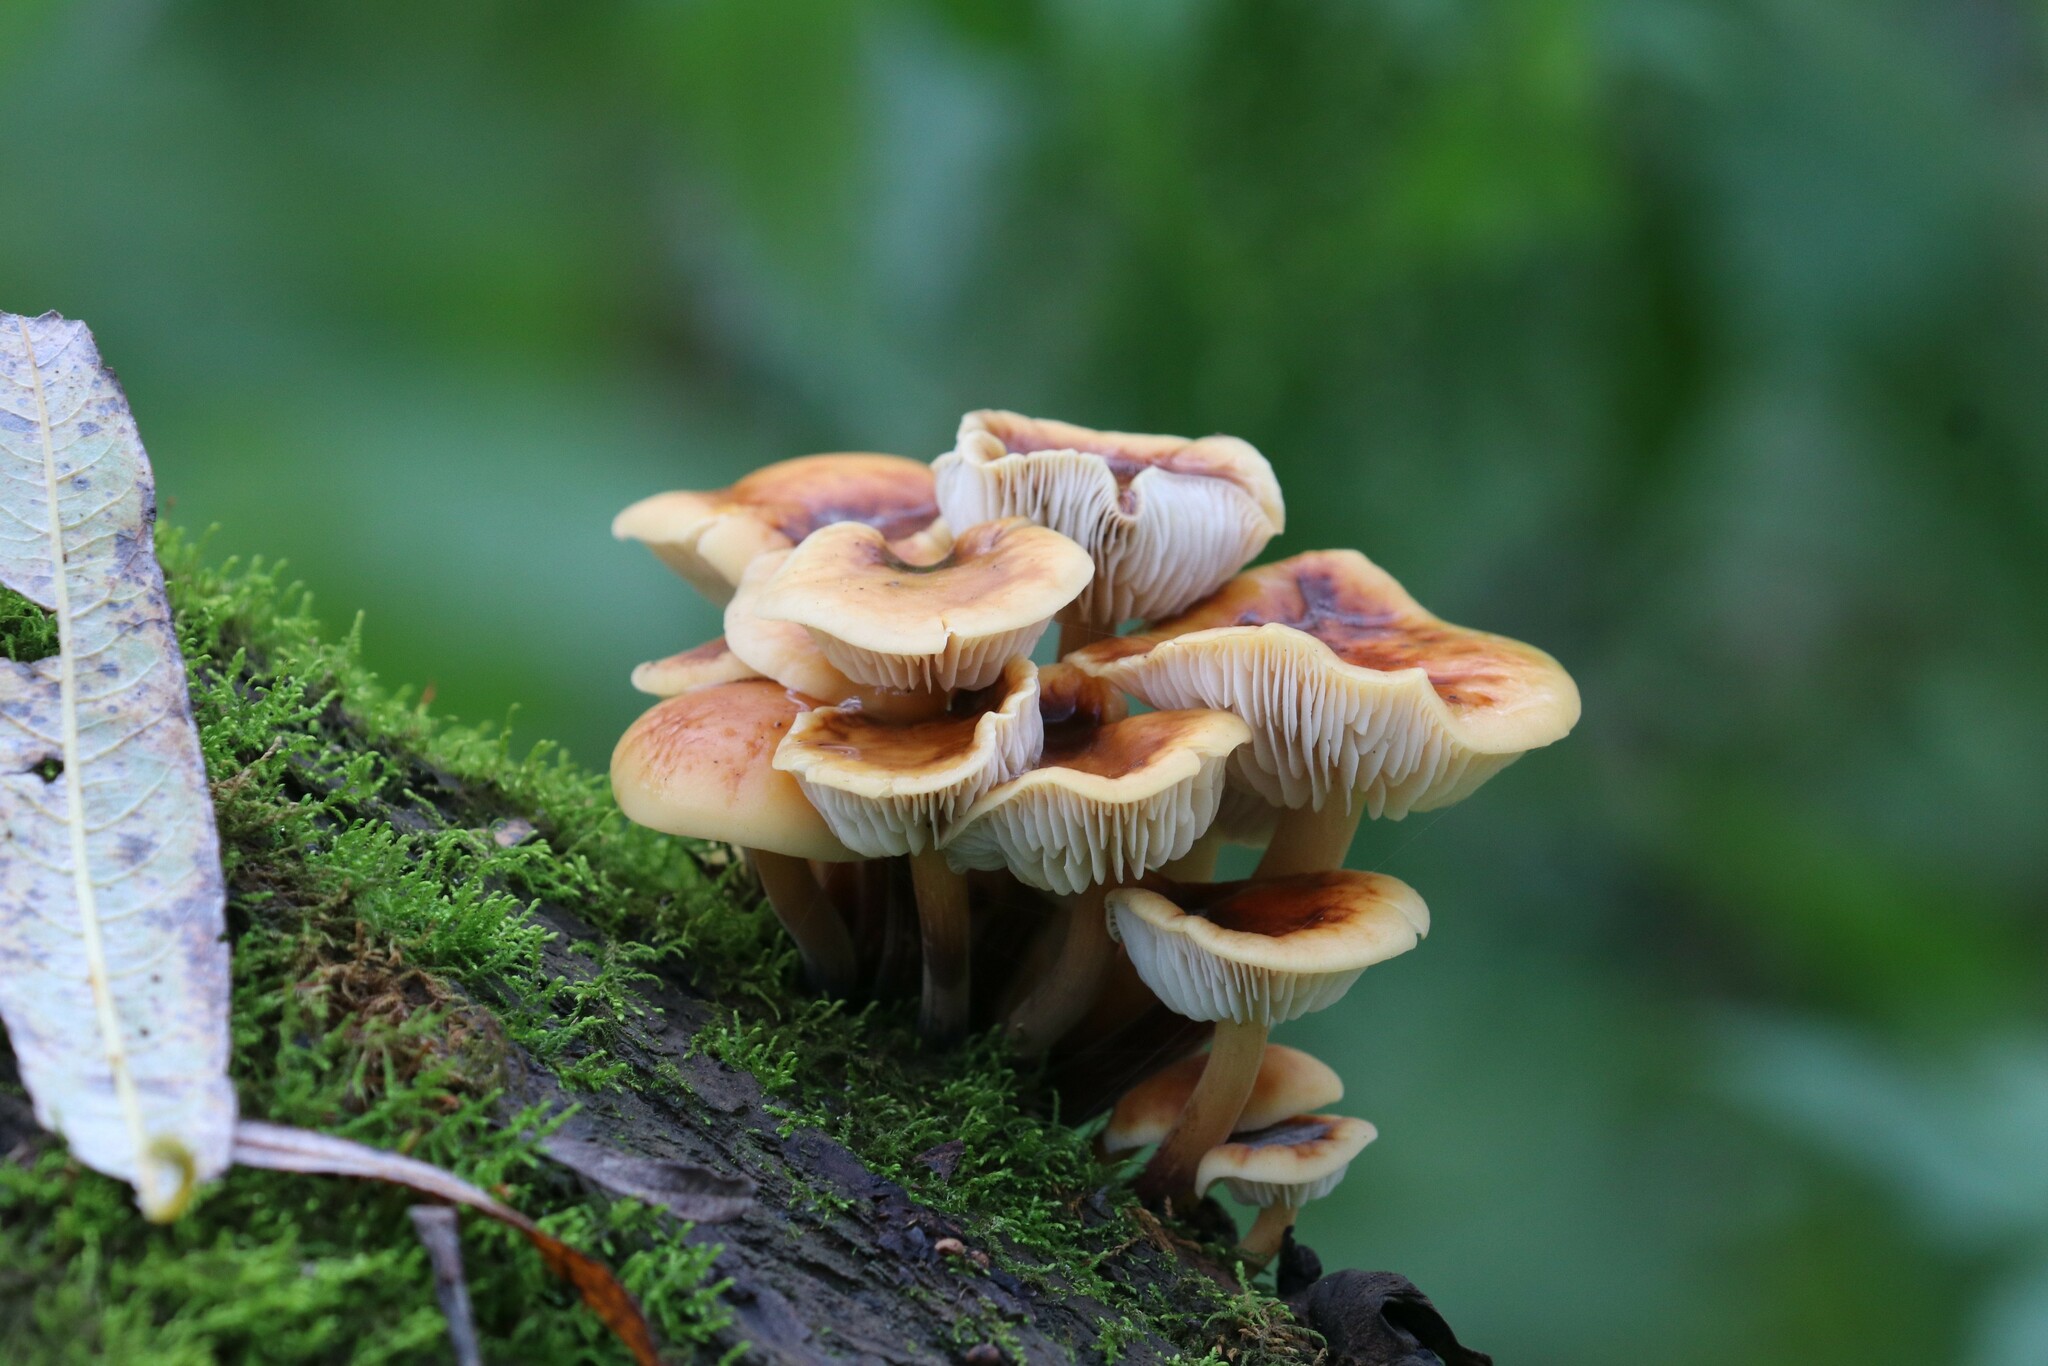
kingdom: Fungi
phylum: Basidiomycota
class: Agaricomycetes
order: Agaricales
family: Physalacriaceae
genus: Flammulina
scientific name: Flammulina
